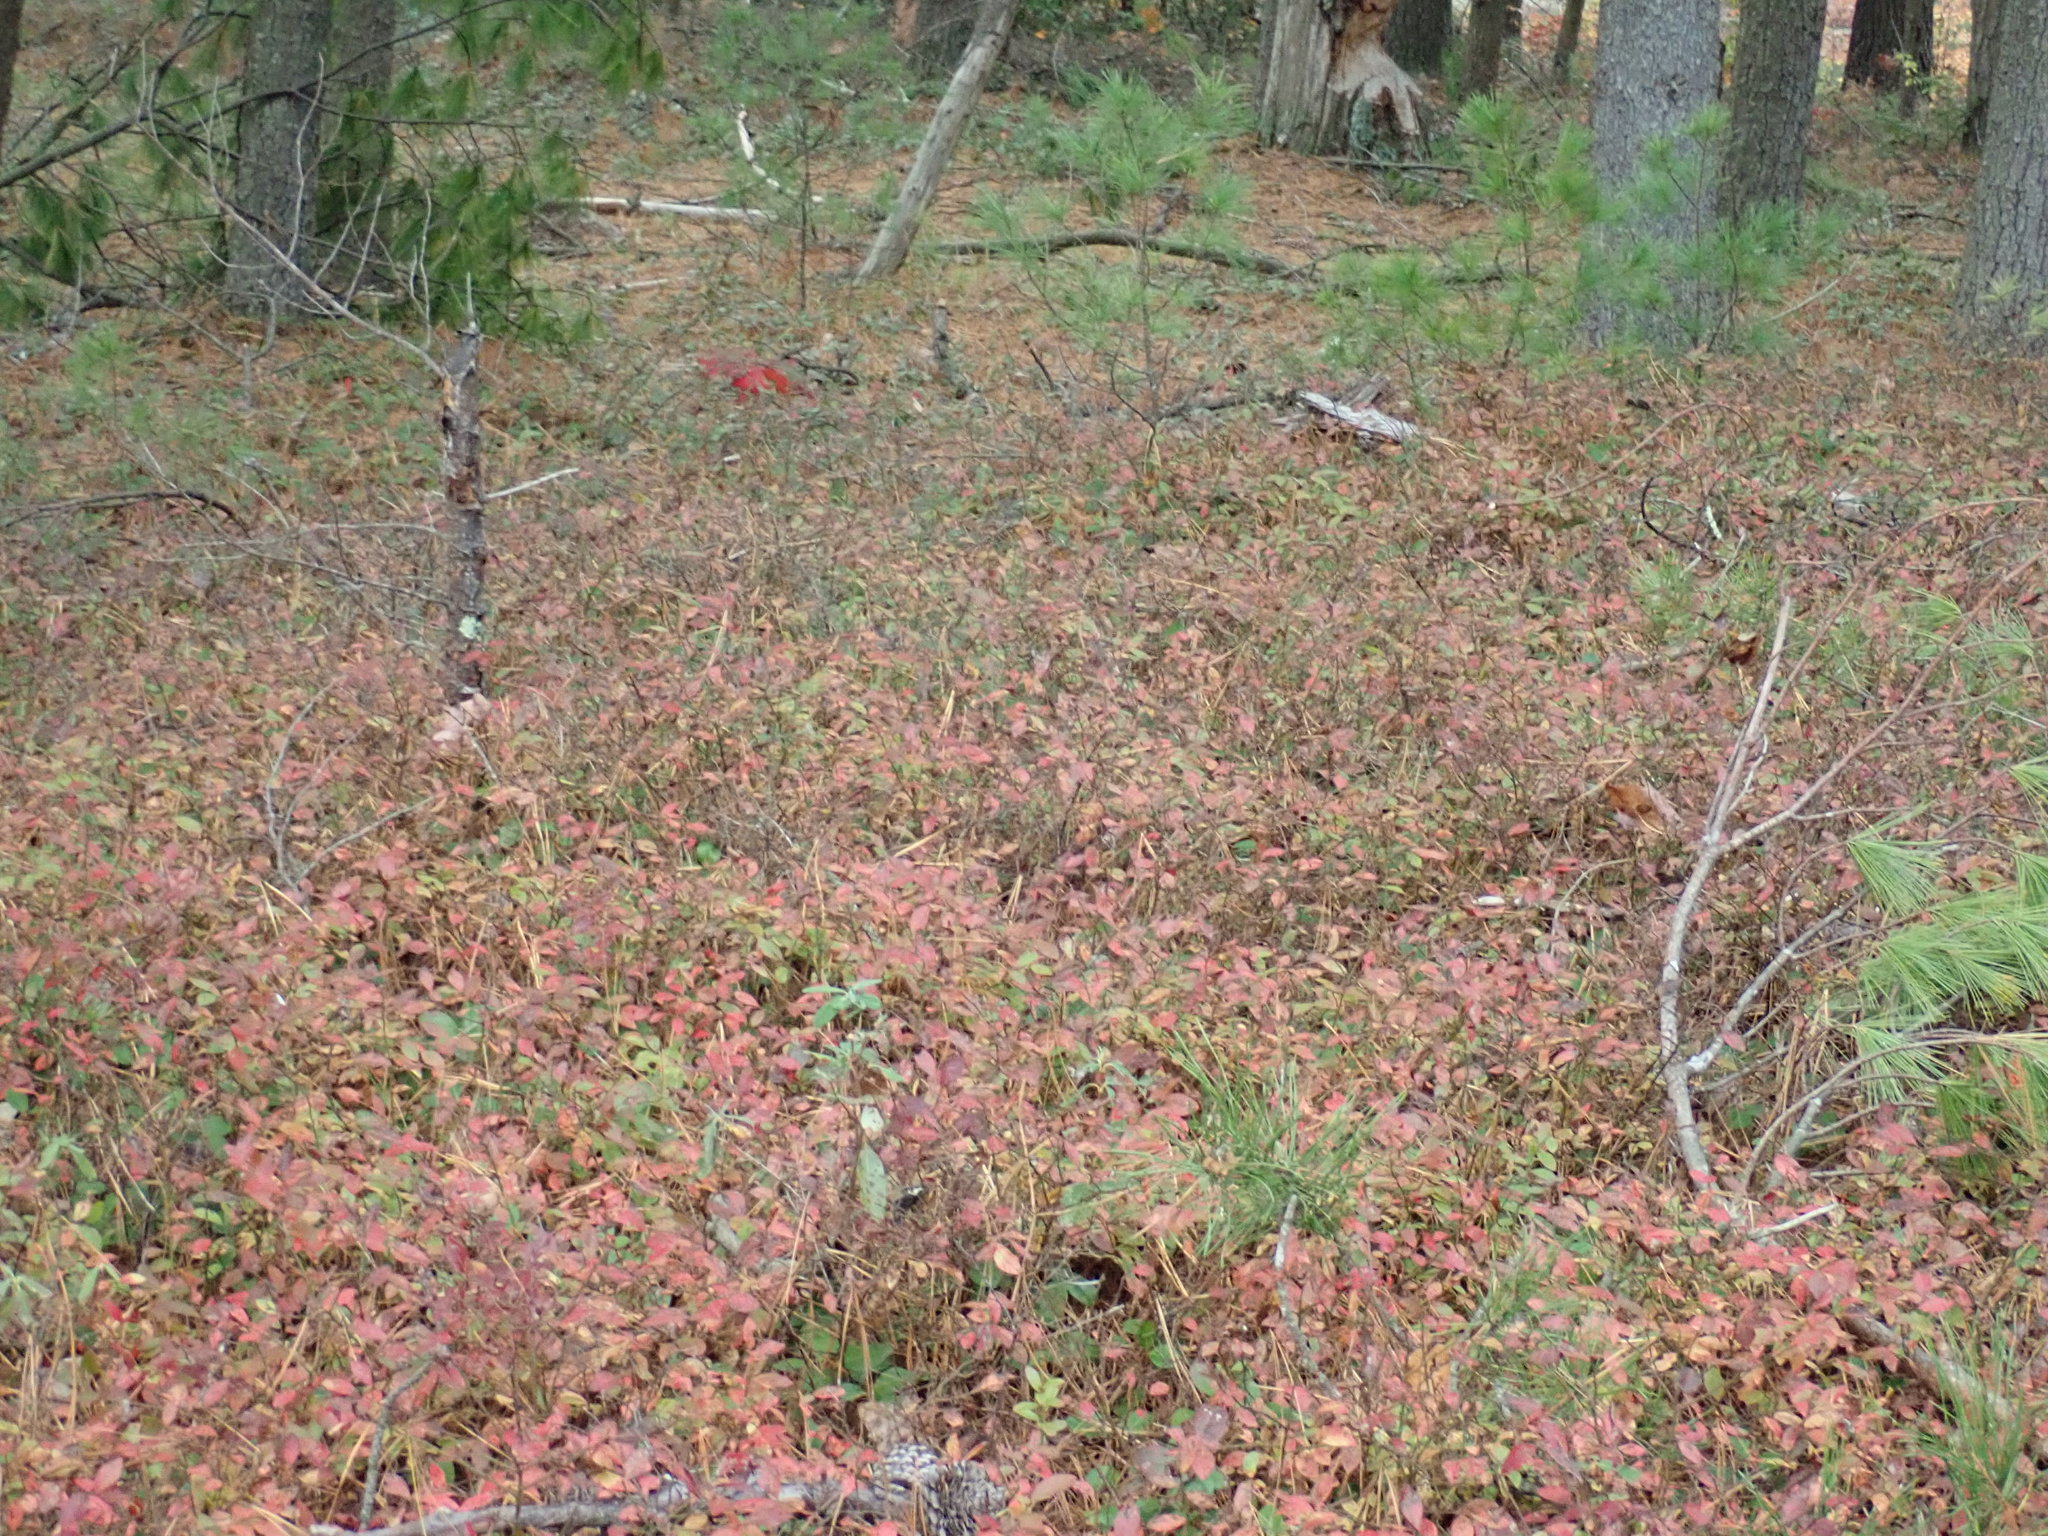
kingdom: Plantae
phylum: Tracheophyta
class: Magnoliopsida
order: Ericales
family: Ericaceae
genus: Vaccinium
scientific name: Vaccinium angustifolium
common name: Early lowbush blueberry
